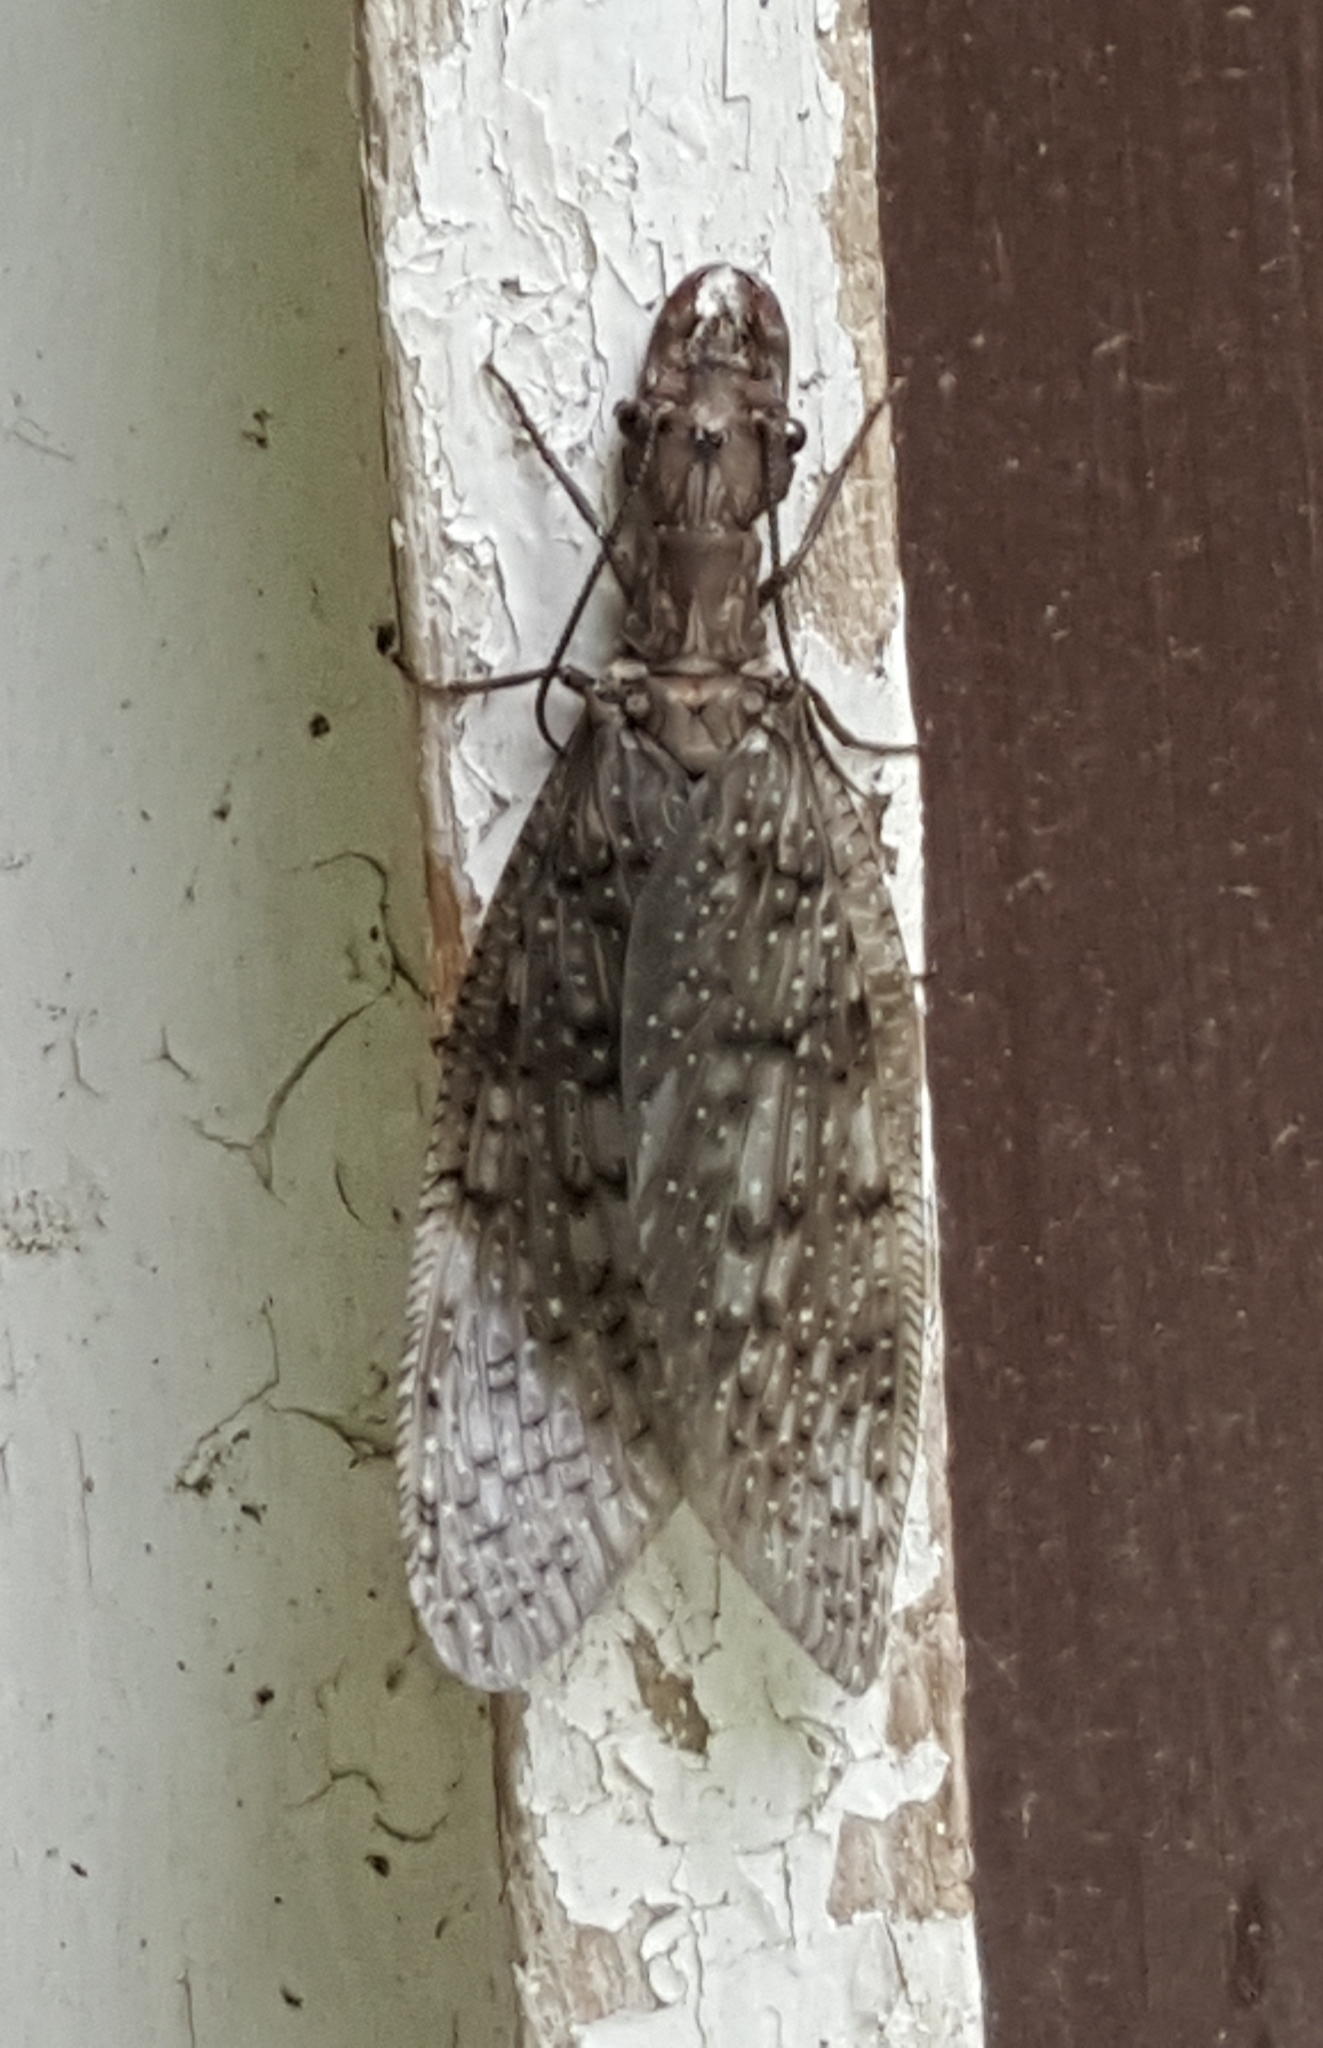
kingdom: Animalia
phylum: Arthropoda
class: Insecta
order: Megaloptera
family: Corydalidae
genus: Corydalus
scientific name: Corydalus cornutus
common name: Dobsonfly
